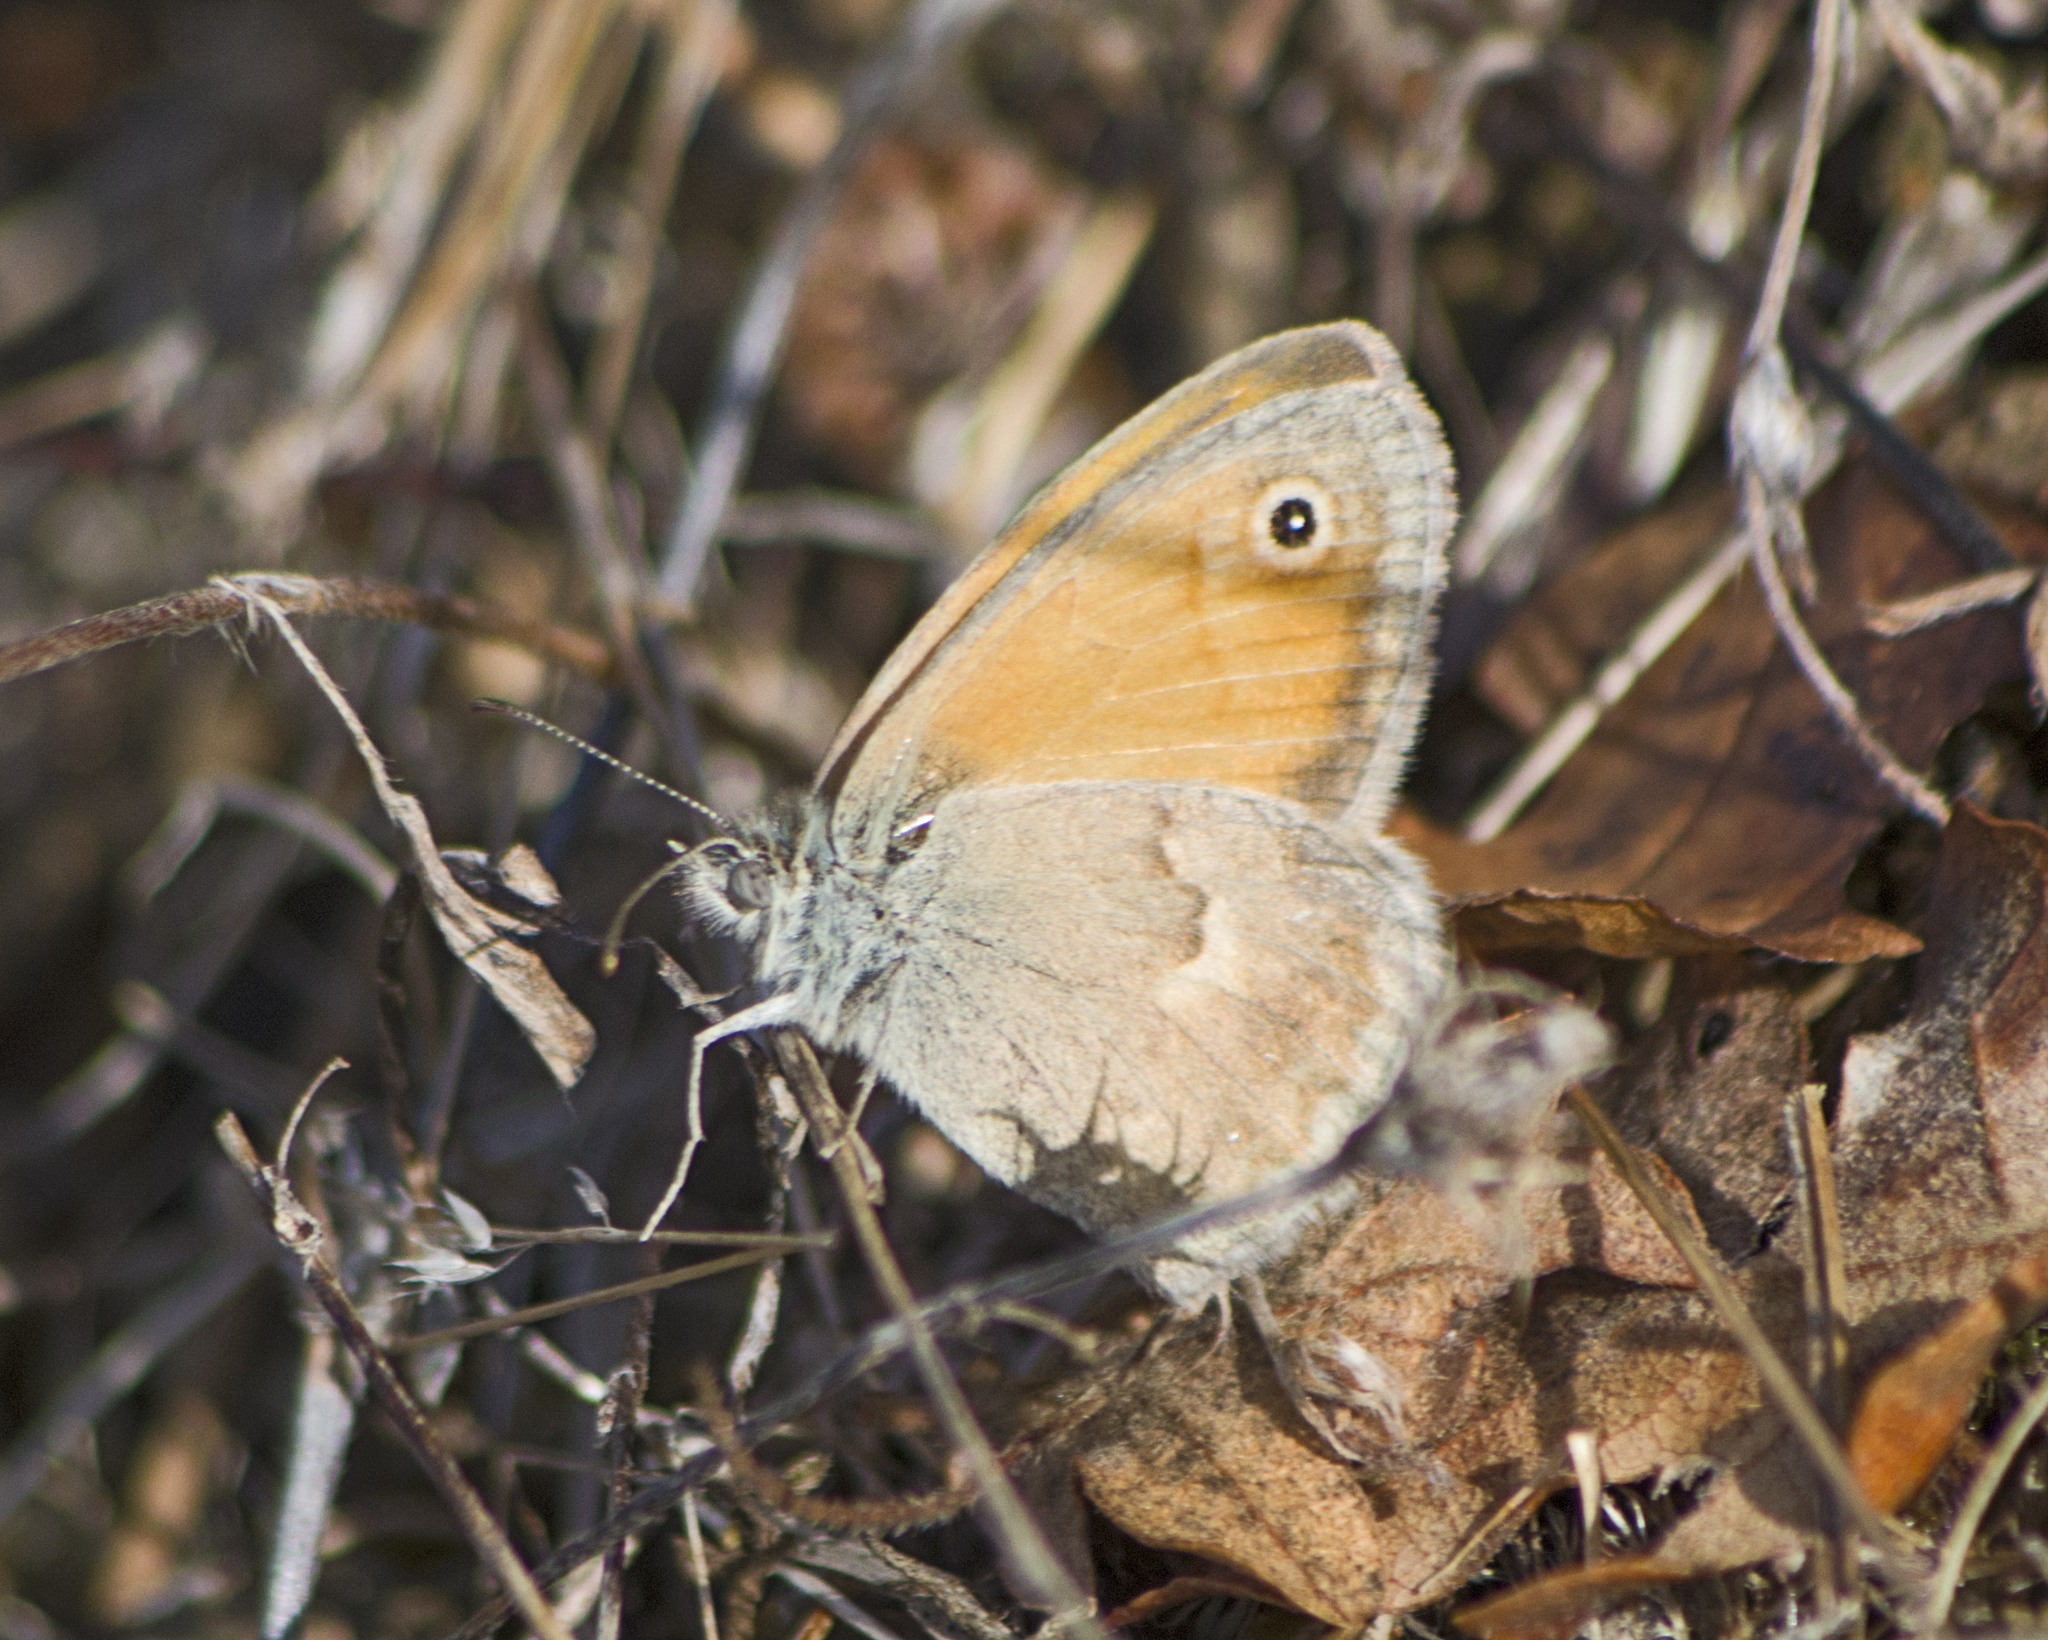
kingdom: Animalia
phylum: Arthropoda
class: Insecta
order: Lepidoptera
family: Nymphalidae
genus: Coenonympha
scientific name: Coenonympha pamphilus
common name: Small heath
